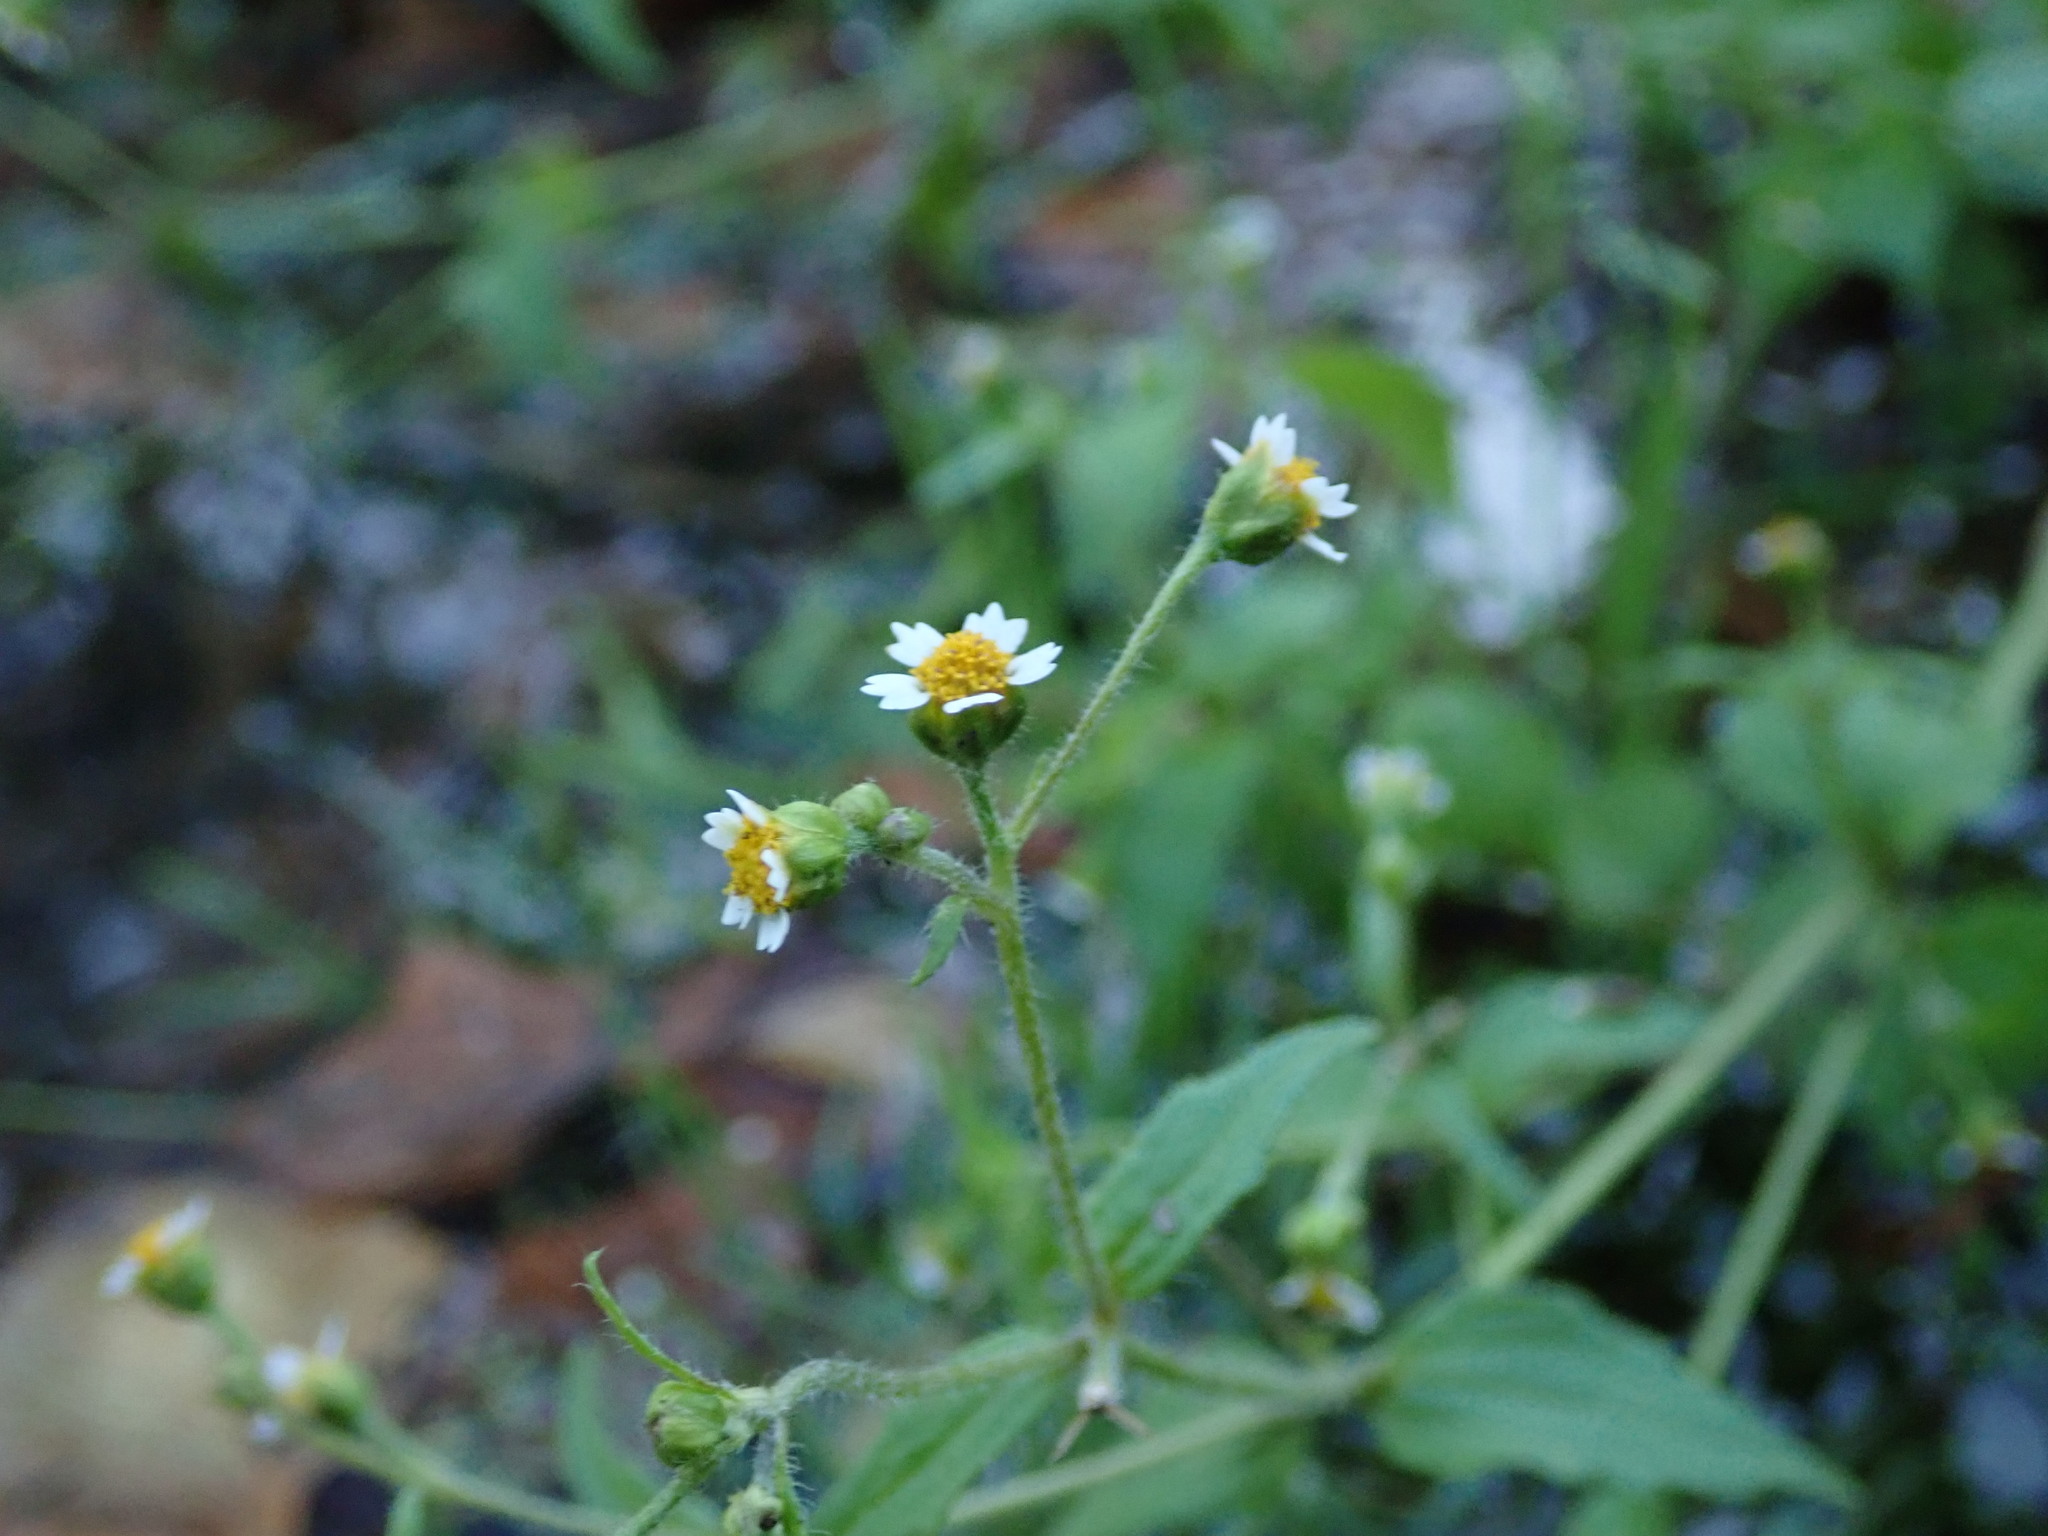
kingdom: Plantae
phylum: Tracheophyta
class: Magnoliopsida
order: Asterales
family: Asteraceae
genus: Galinsoga
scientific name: Galinsoga quadriradiata
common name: Shaggy soldier
